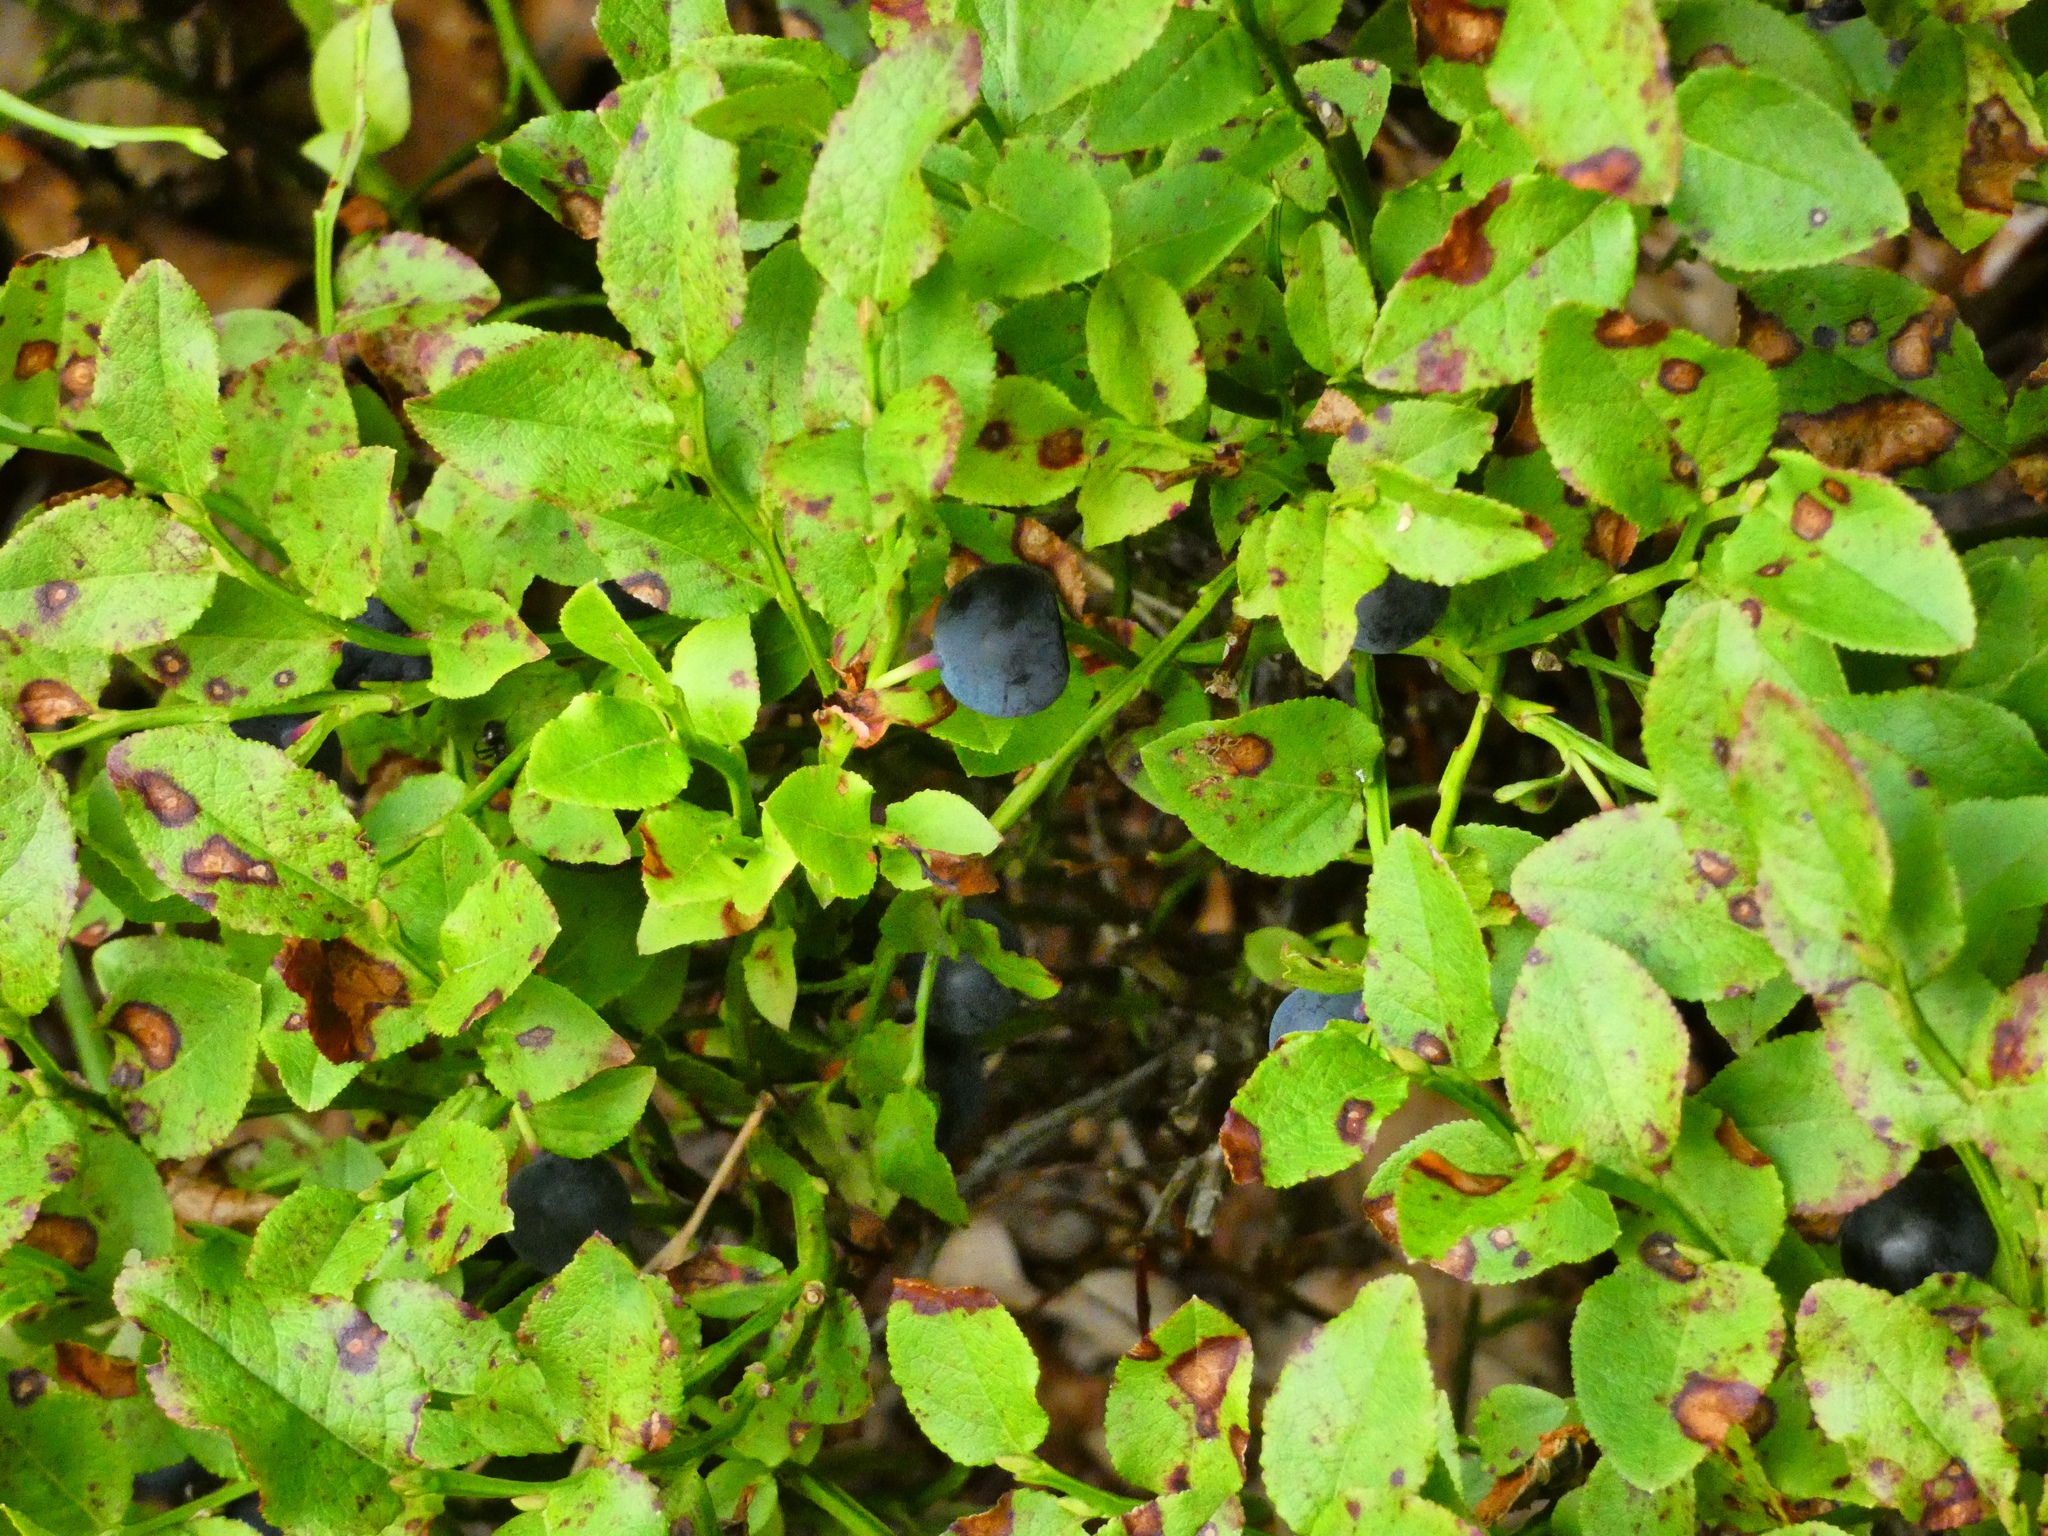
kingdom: Plantae
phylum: Tracheophyta
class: Magnoliopsida
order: Ericales
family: Ericaceae
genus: Vaccinium
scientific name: Vaccinium myrtillus
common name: Bilberry
